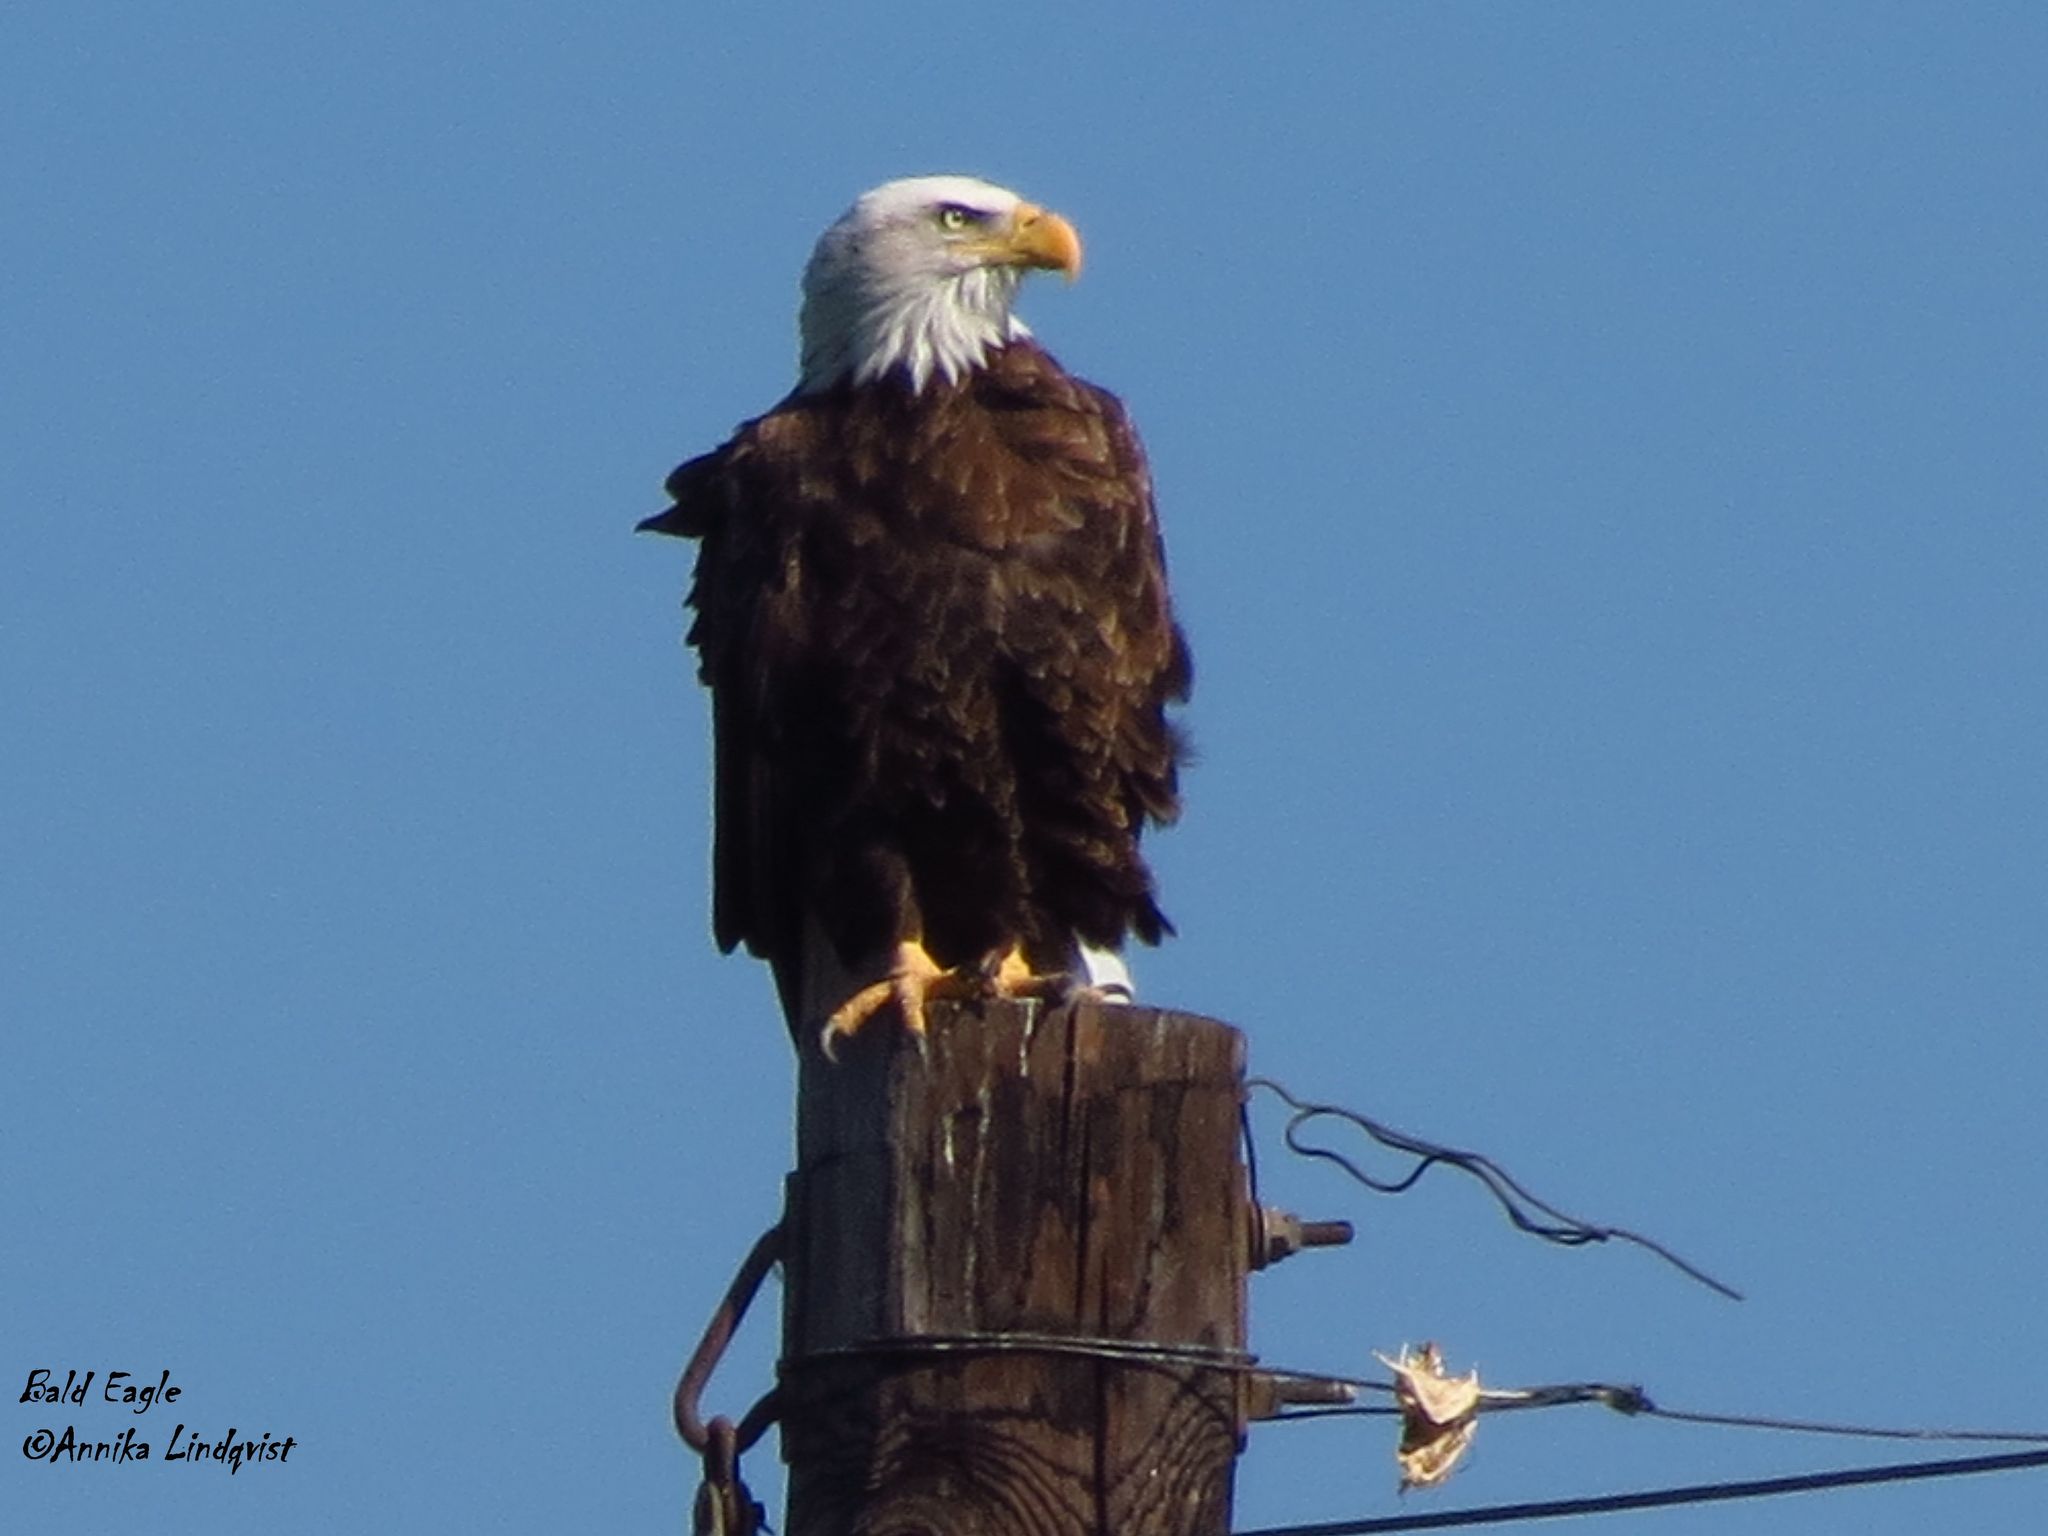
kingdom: Animalia
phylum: Chordata
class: Aves
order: Accipitriformes
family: Accipitridae
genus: Haliaeetus
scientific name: Haliaeetus leucocephalus
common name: Bald eagle
